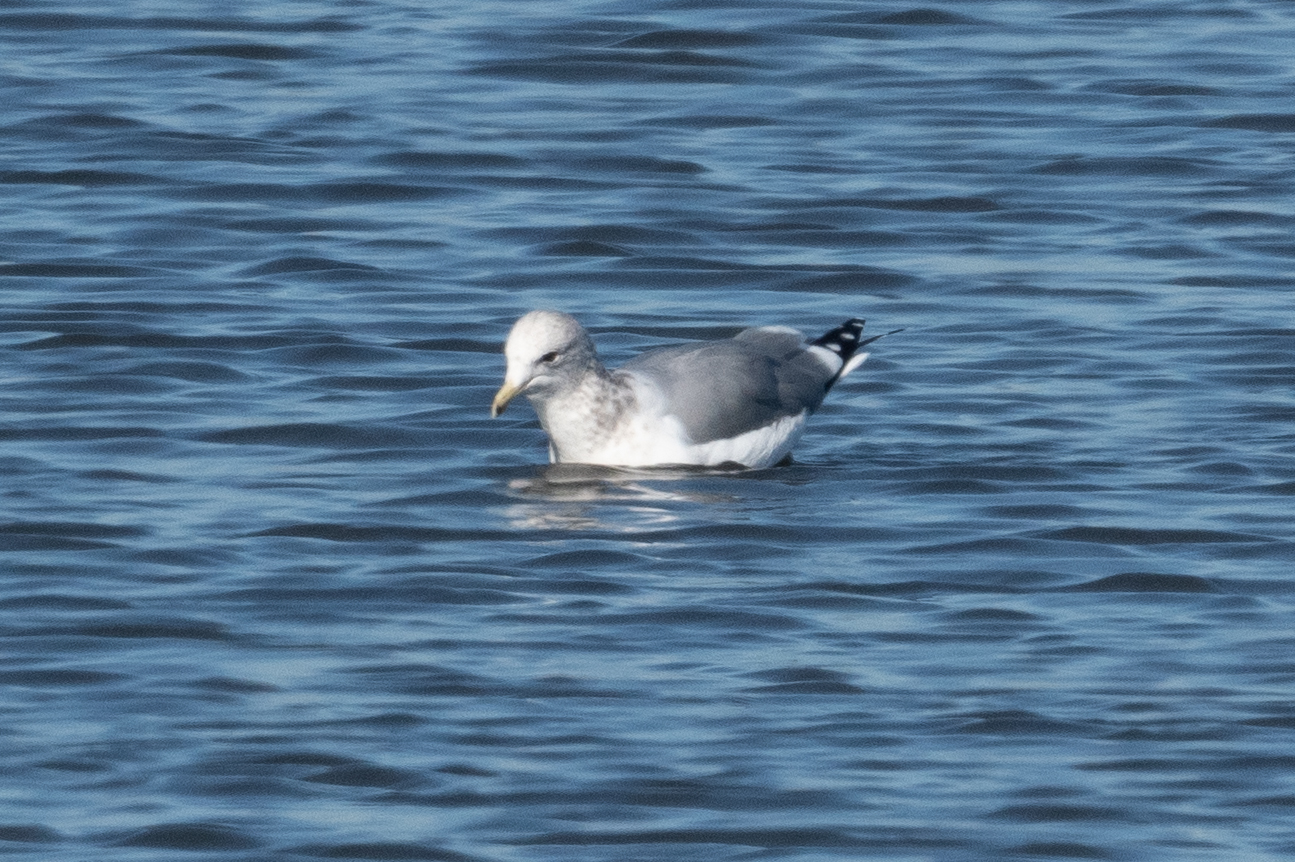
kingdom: Animalia
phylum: Chordata
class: Aves
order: Charadriiformes
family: Laridae
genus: Larus
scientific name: Larus californicus
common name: California gull
